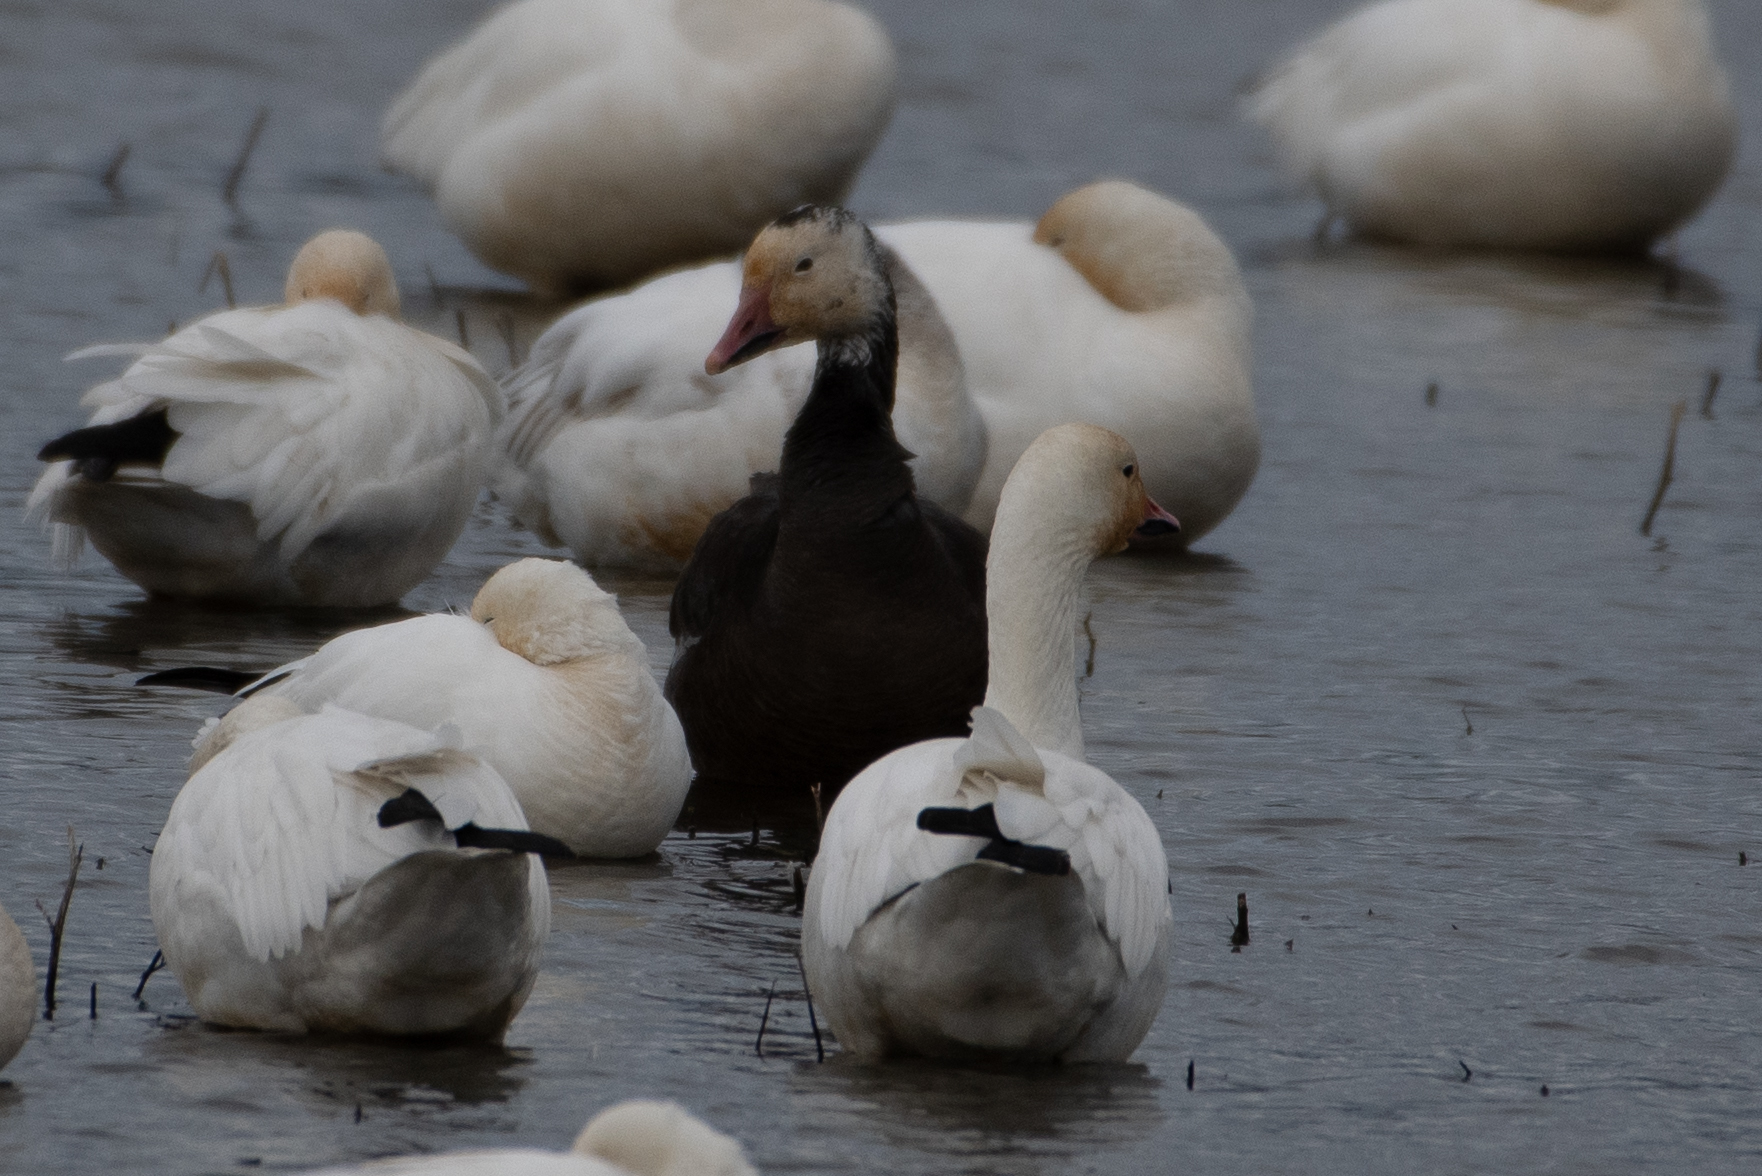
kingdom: Animalia
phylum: Chordata
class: Aves
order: Anseriformes
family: Anatidae
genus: Anser
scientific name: Anser caerulescens
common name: Snow goose
